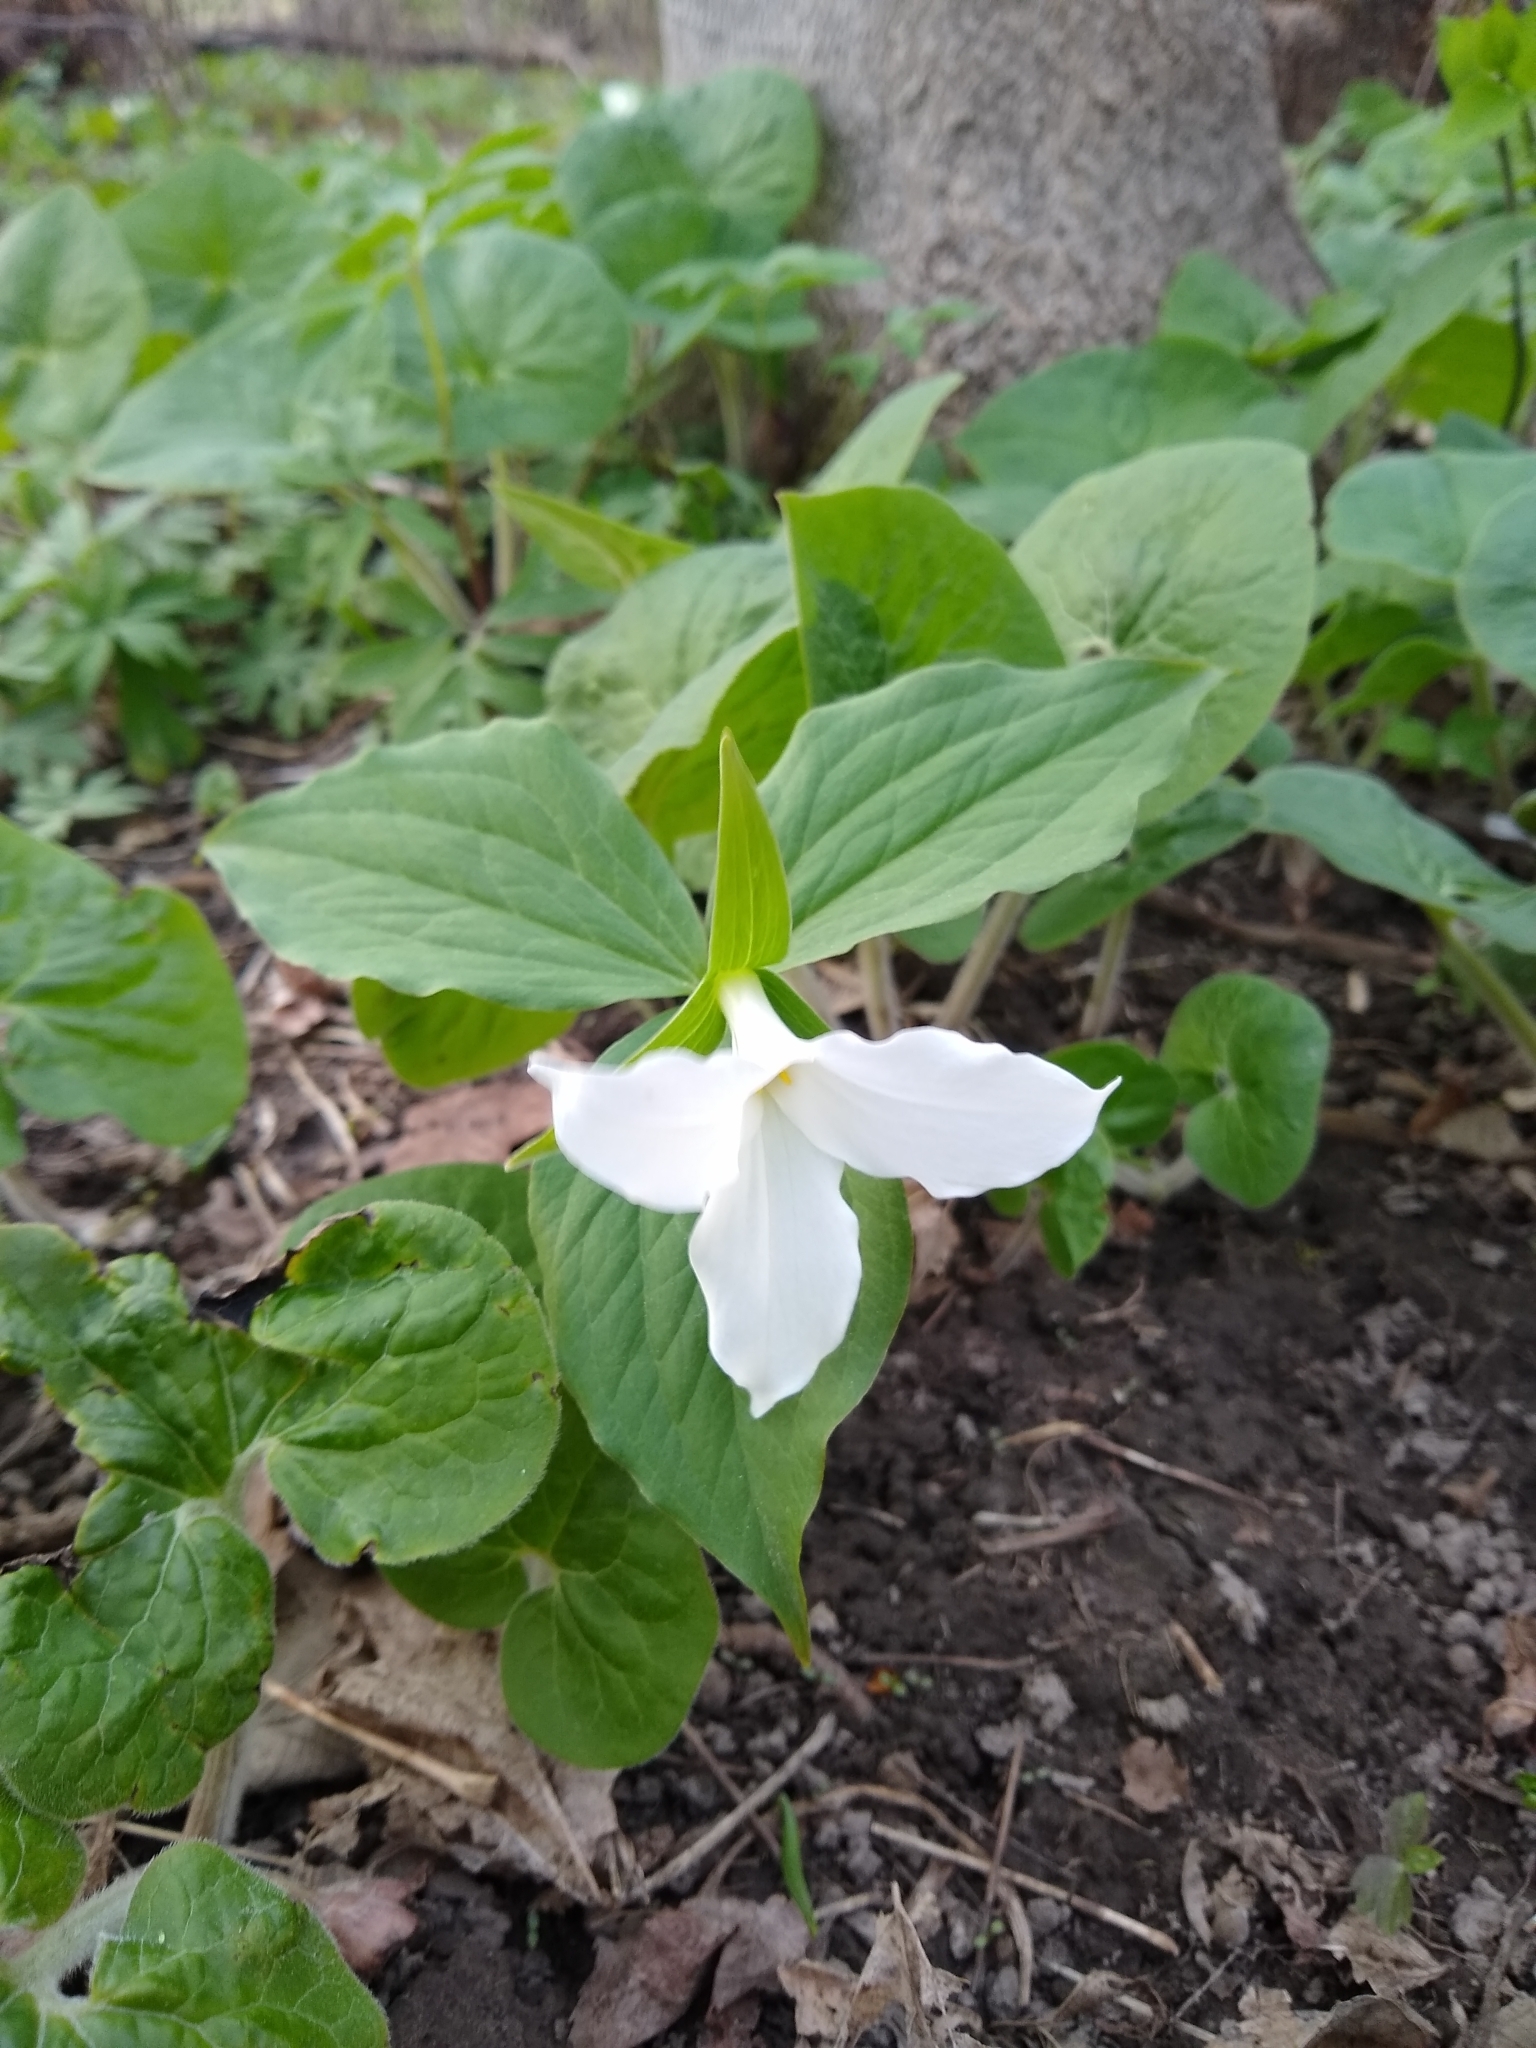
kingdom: Plantae
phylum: Tracheophyta
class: Liliopsida
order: Liliales
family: Melanthiaceae
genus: Trillium
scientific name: Trillium grandiflorum
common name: Great white trillium
